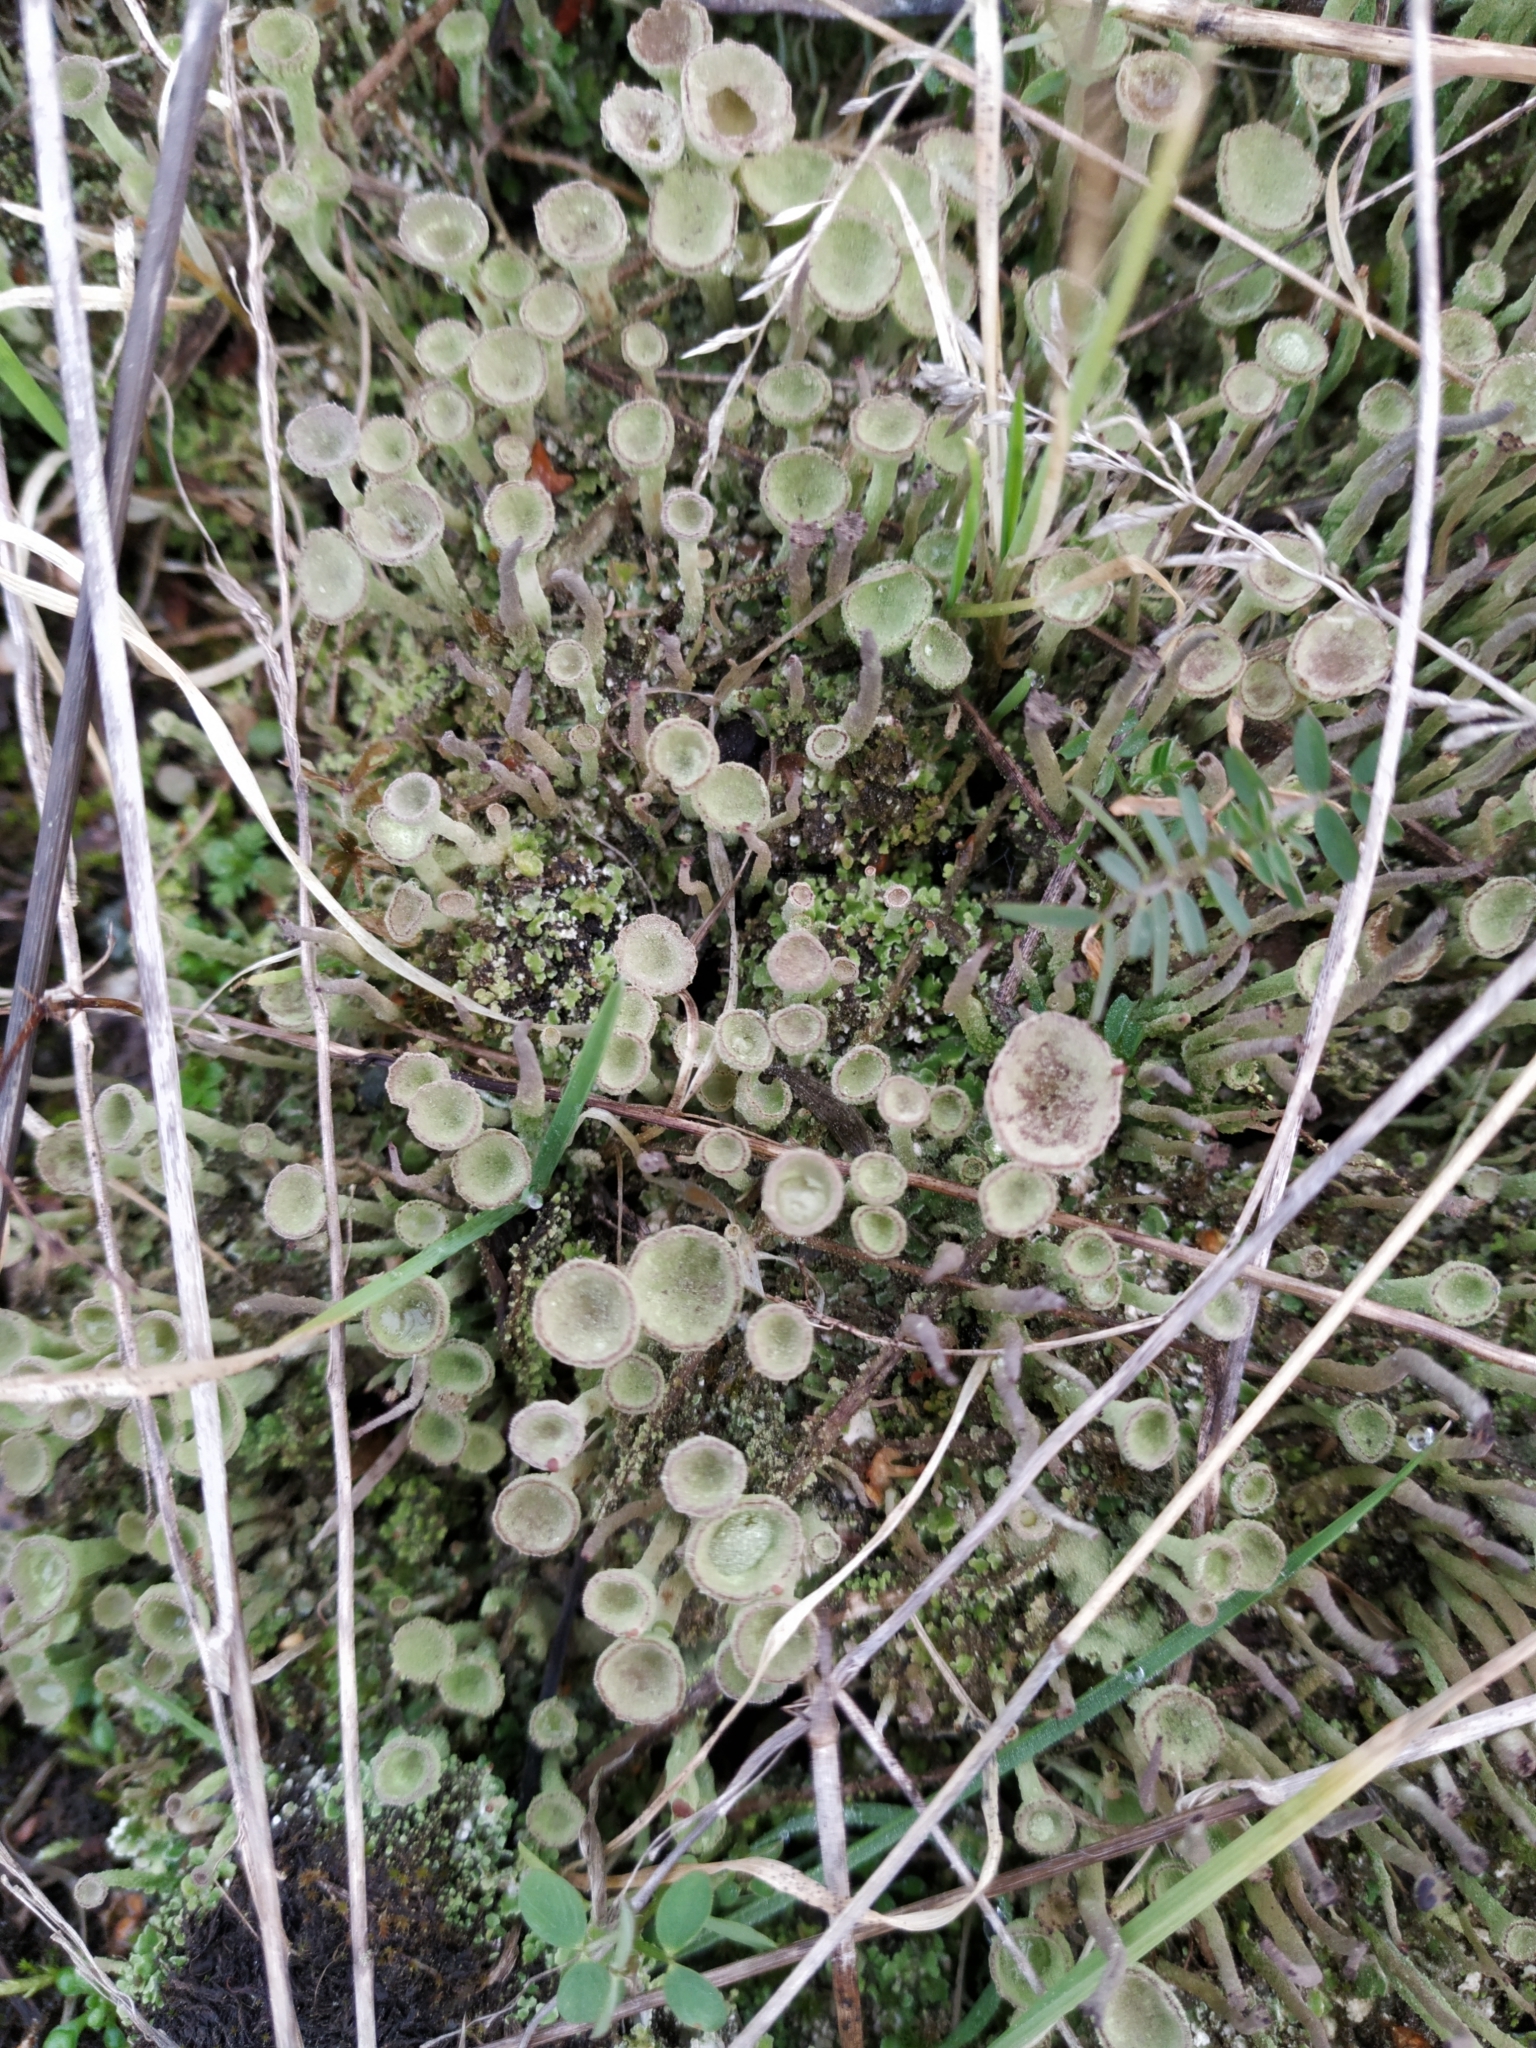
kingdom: Fungi
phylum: Ascomycota
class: Lecanoromycetes
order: Lecanorales
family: Cladoniaceae
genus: Cladonia
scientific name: Cladonia fimbriata
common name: Powdered trumpet lichen
